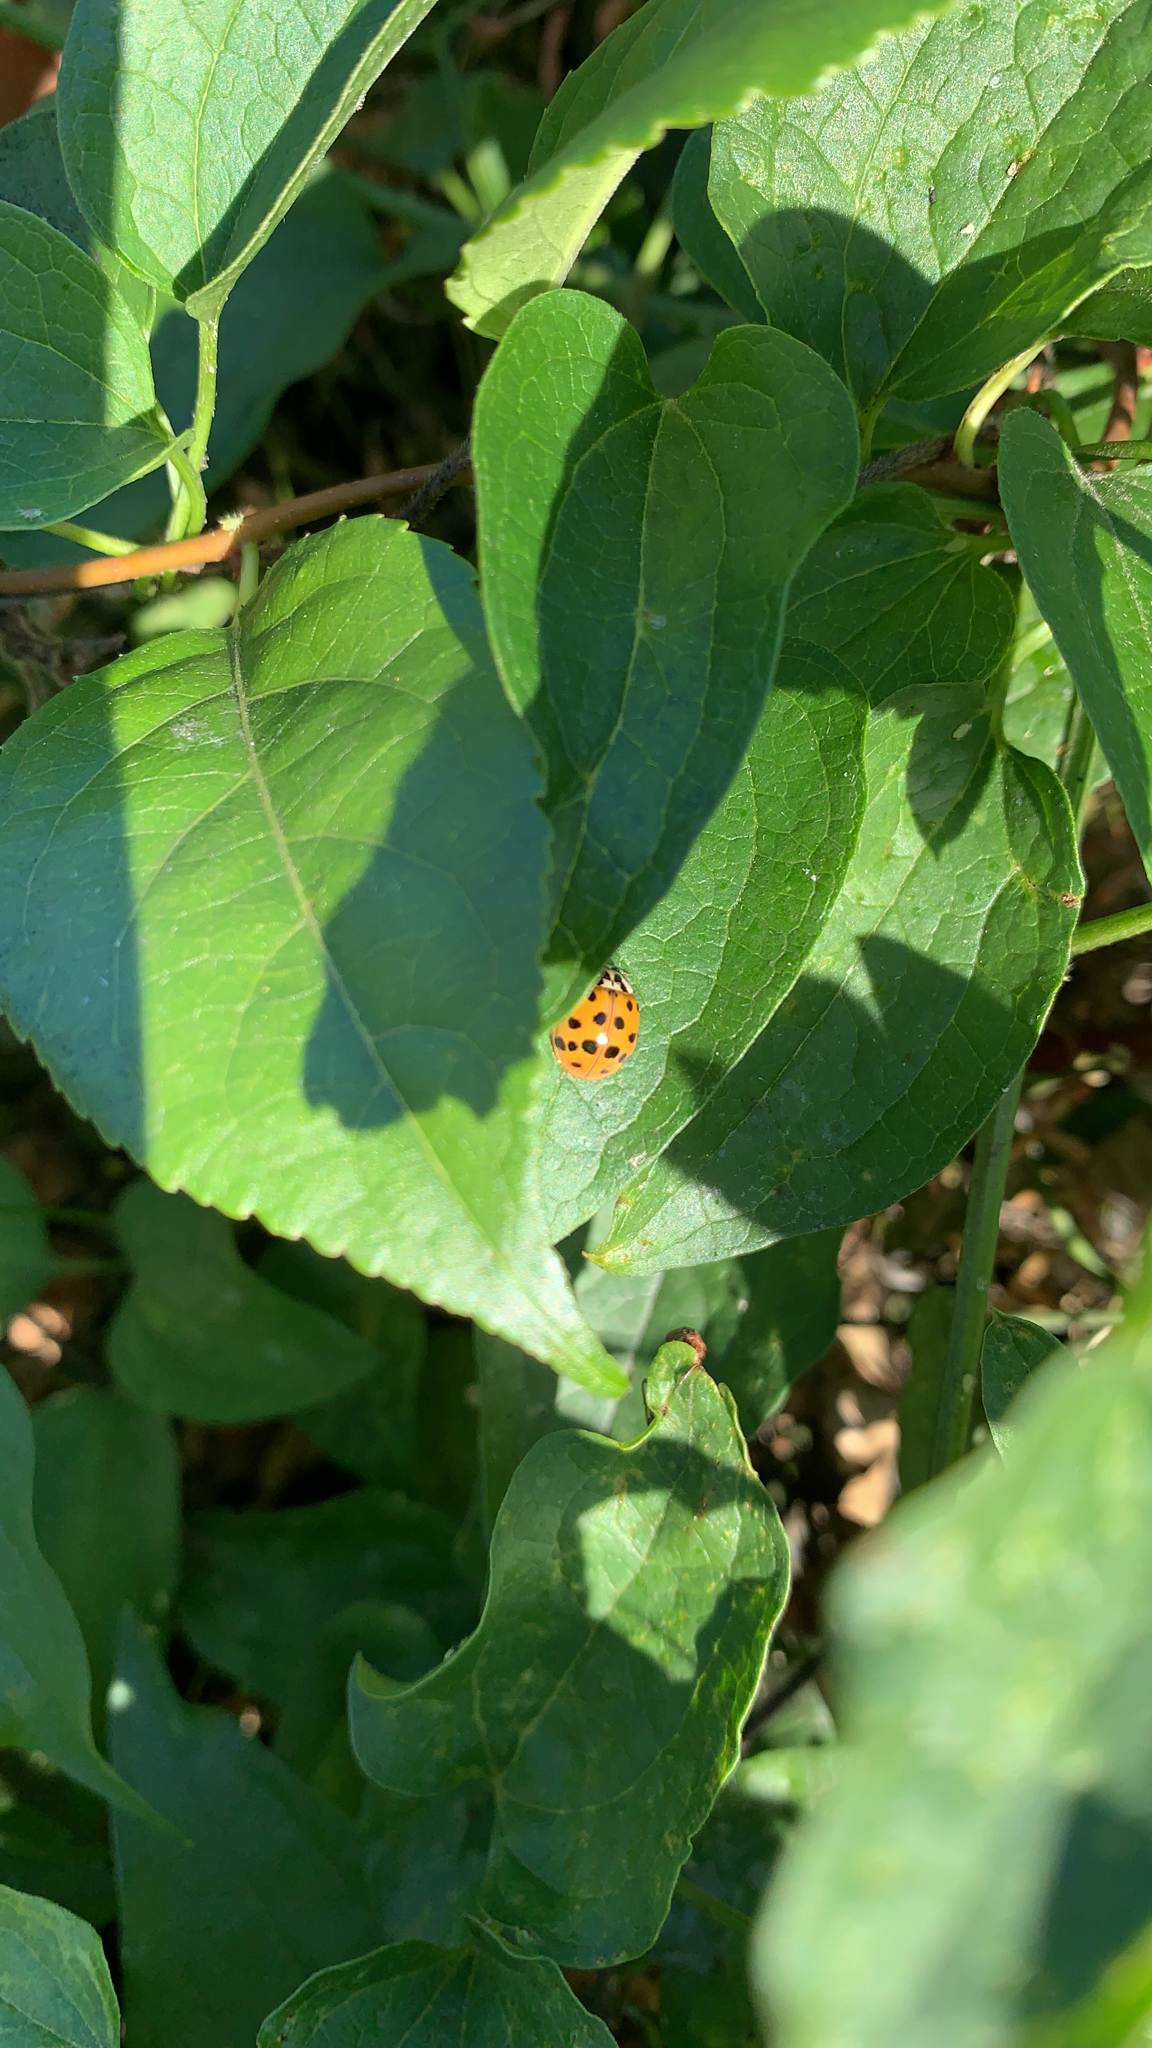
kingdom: Animalia
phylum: Arthropoda
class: Insecta
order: Coleoptera
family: Coccinellidae
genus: Harmonia
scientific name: Harmonia axyridis
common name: Harlequin ladybird
